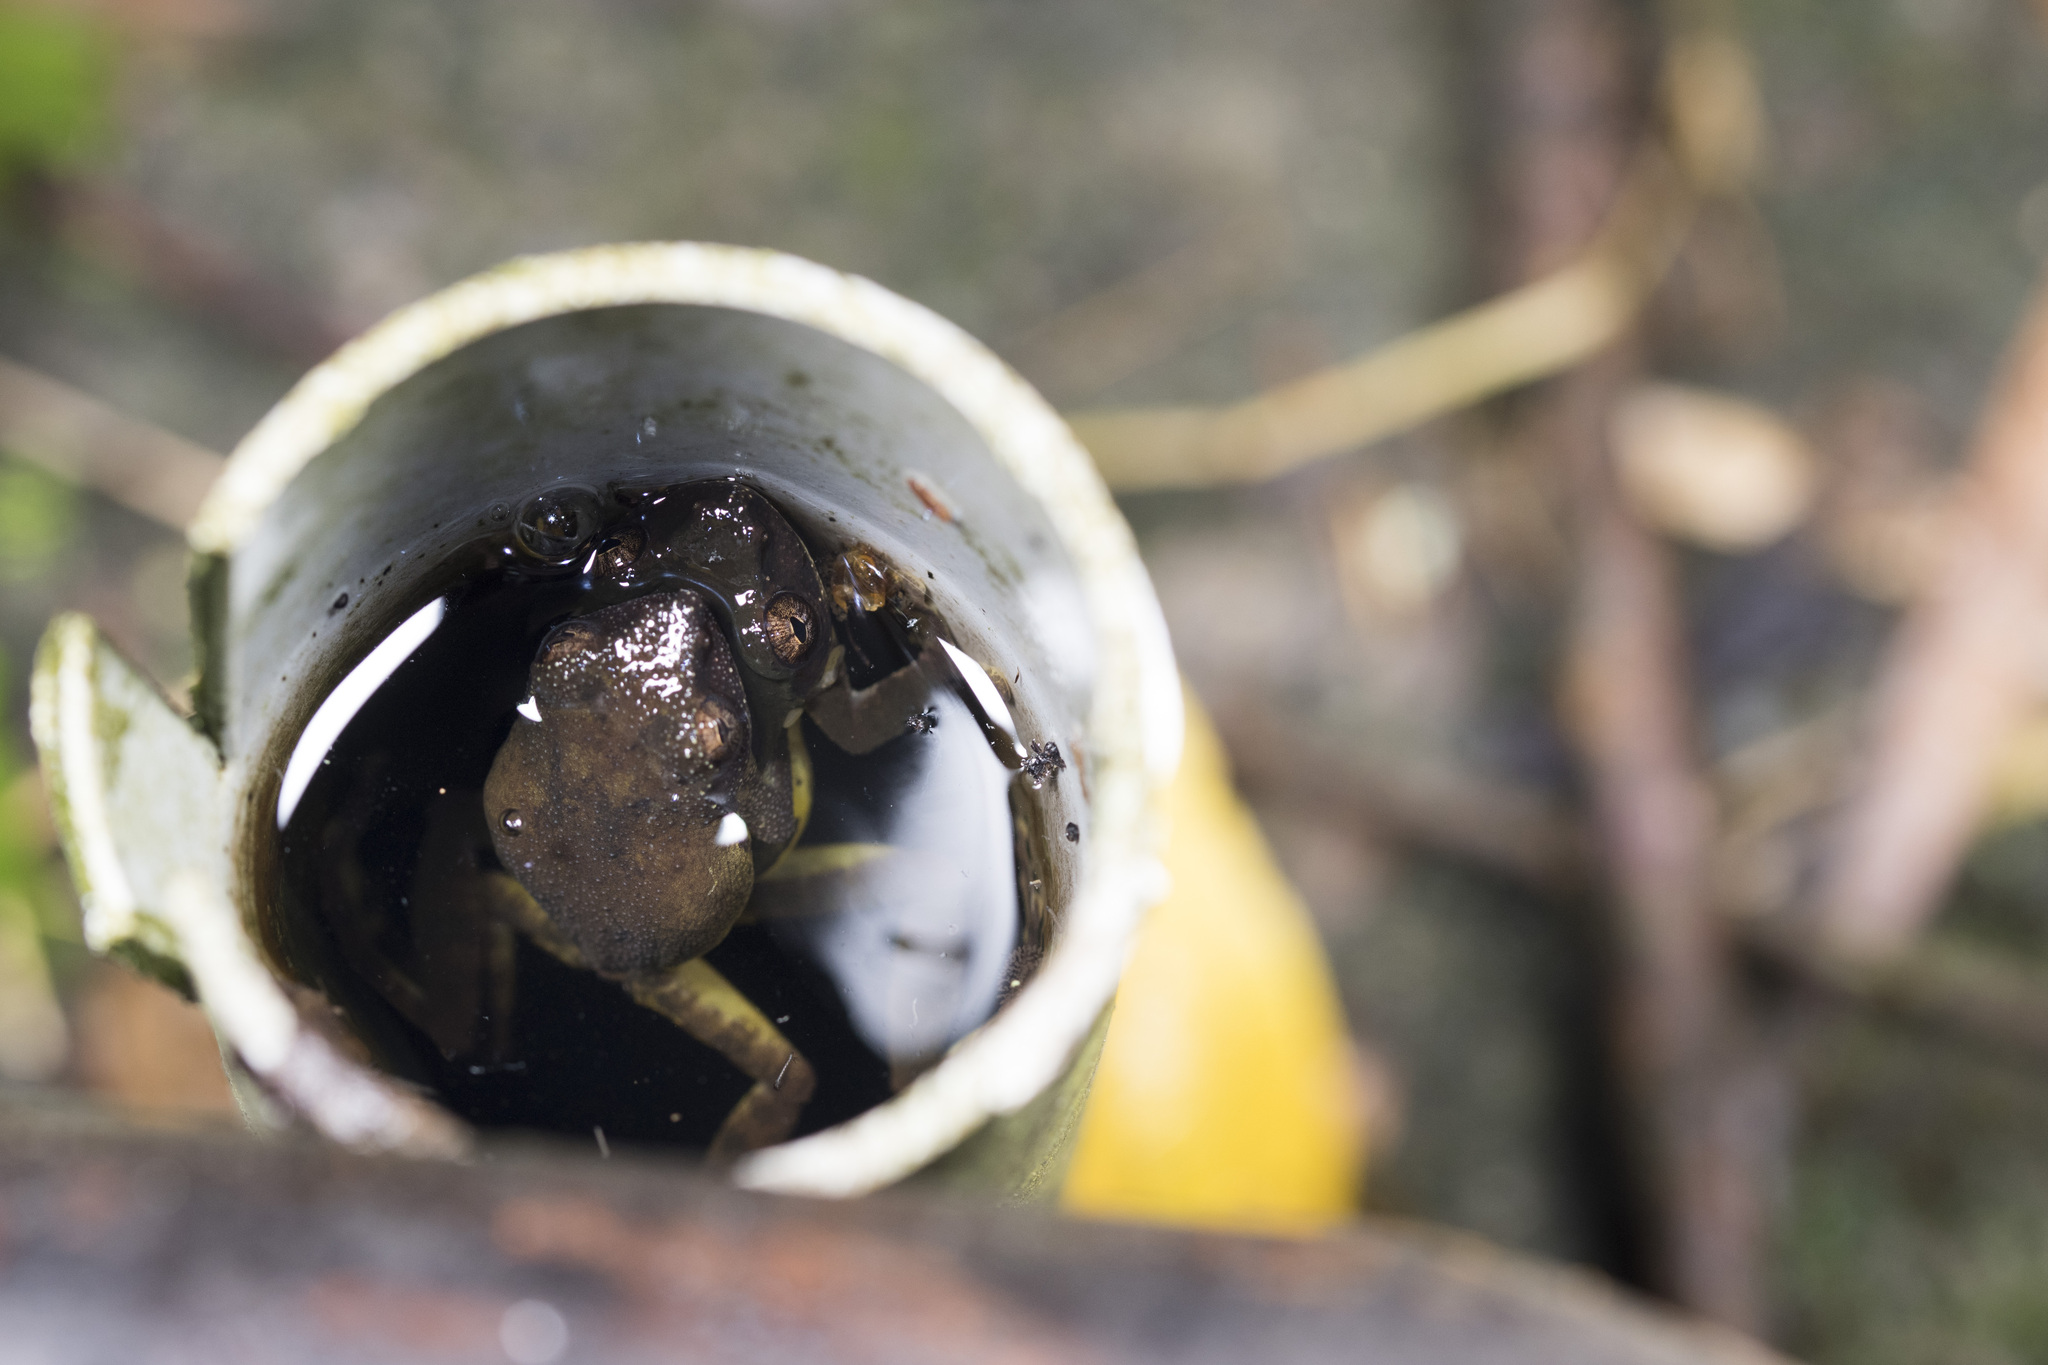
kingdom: Animalia
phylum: Chordata
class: Amphibia
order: Anura
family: Rhacophoridae
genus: Kurixalus
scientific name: Kurixalus eiffingeri
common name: Eiffinger’s treefrog
